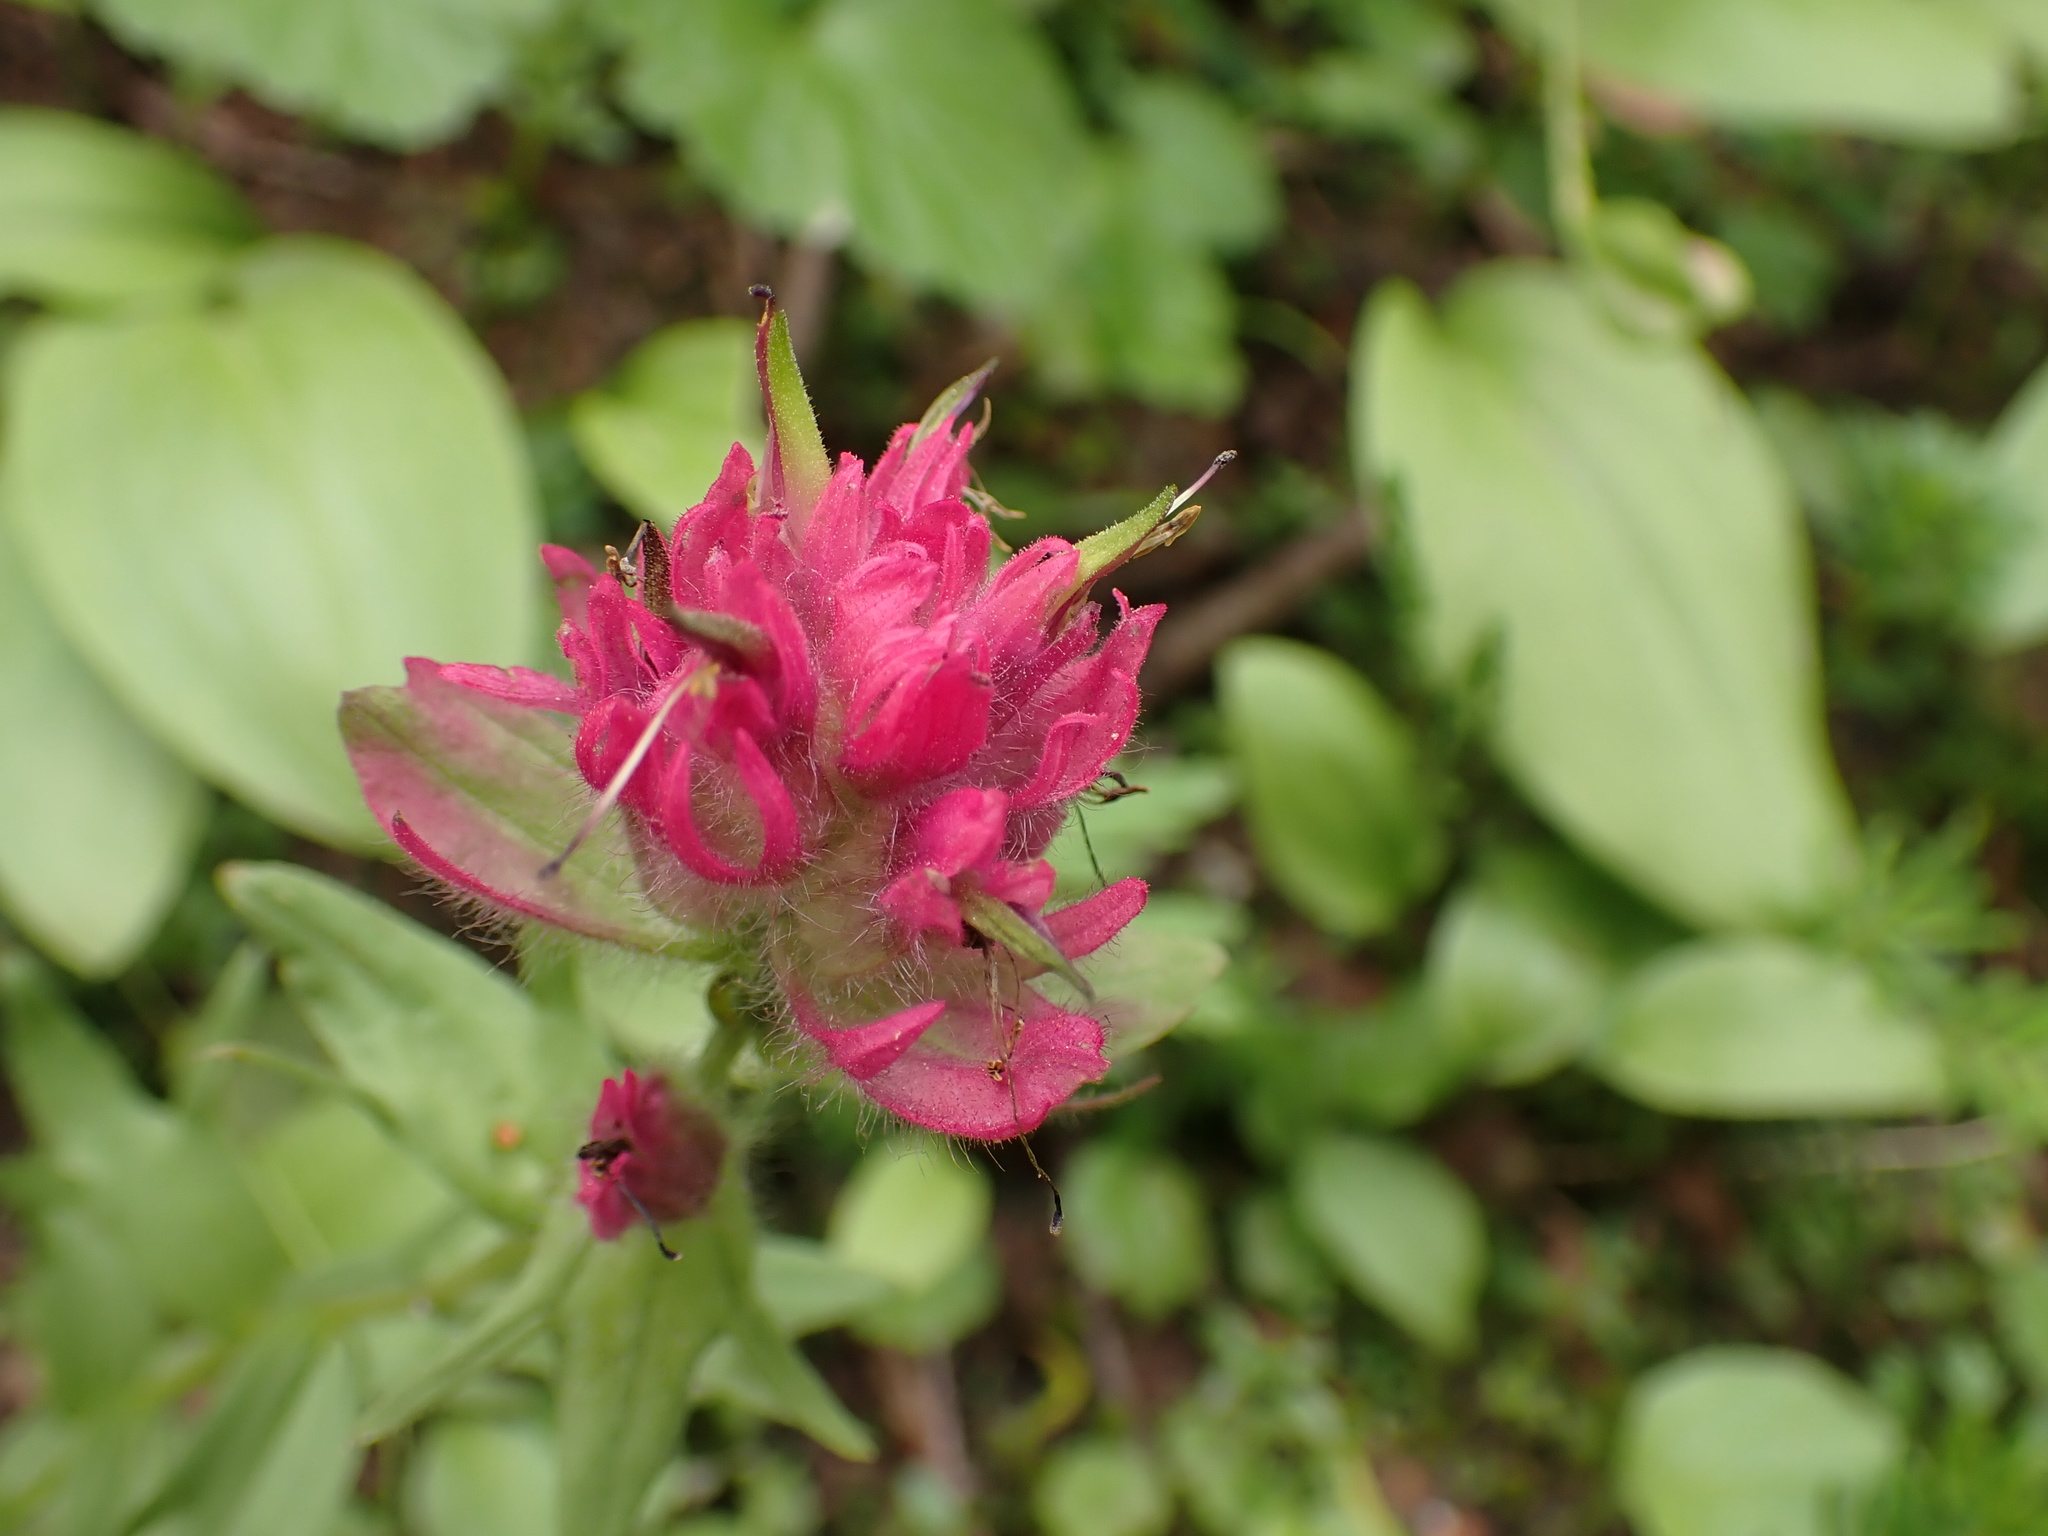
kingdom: Plantae
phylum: Tracheophyta
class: Magnoliopsida
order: Lamiales
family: Orobanchaceae
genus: Castilleja
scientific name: Castilleja parviflora
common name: Mountain paintbrush
